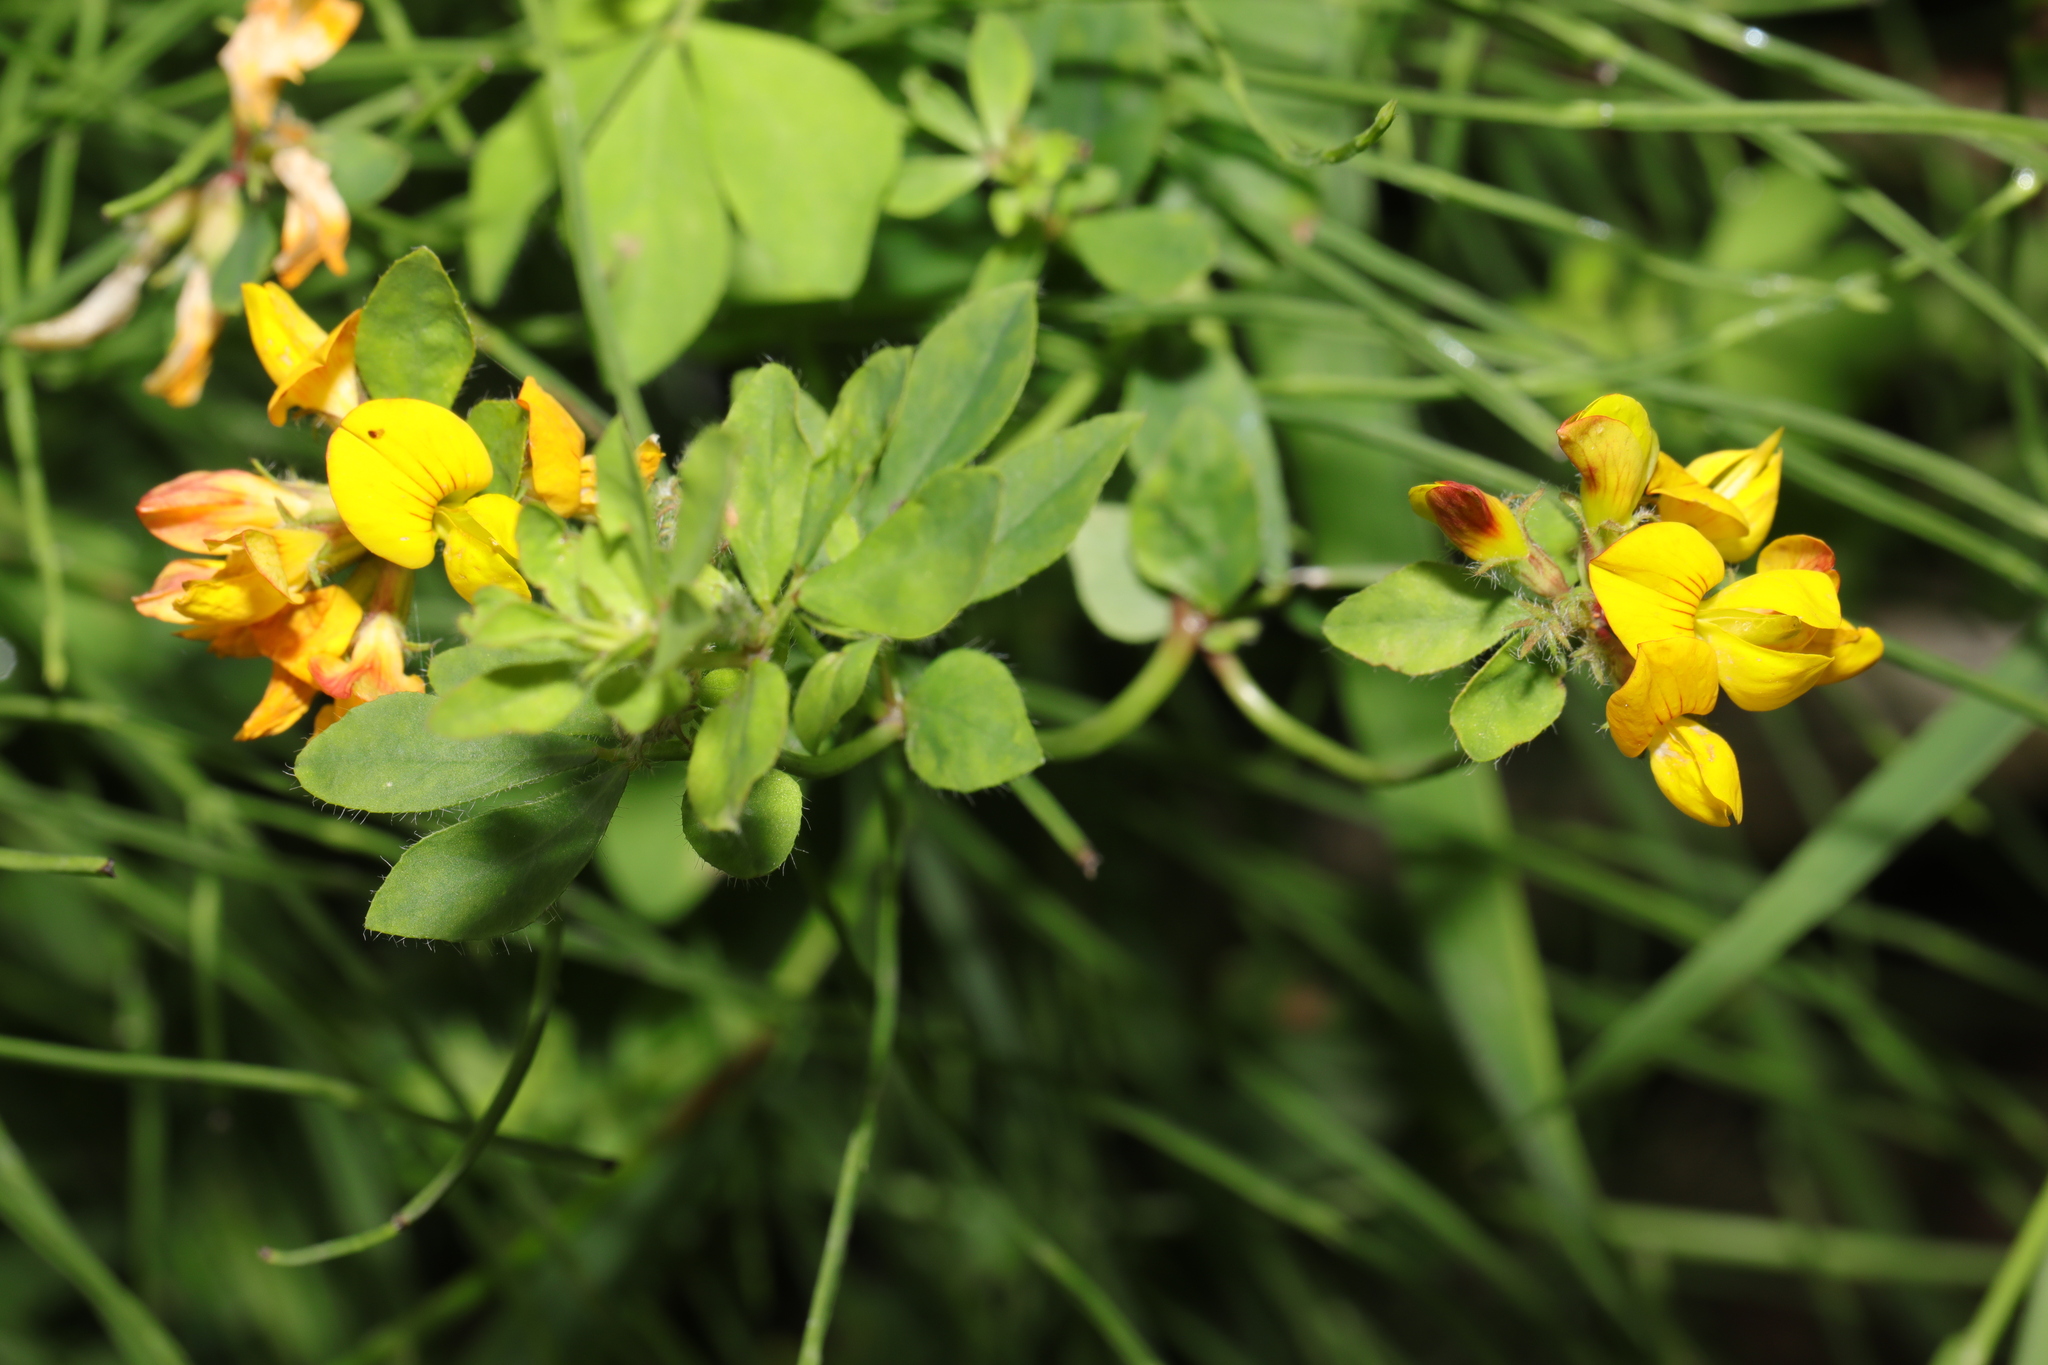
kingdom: Plantae
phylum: Tracheophyta
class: Magnoliopsida
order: Fabales
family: Fabaceae
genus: Lotus
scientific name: Lotus pedunculatus
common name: Greater birdsfoot-trefoil
